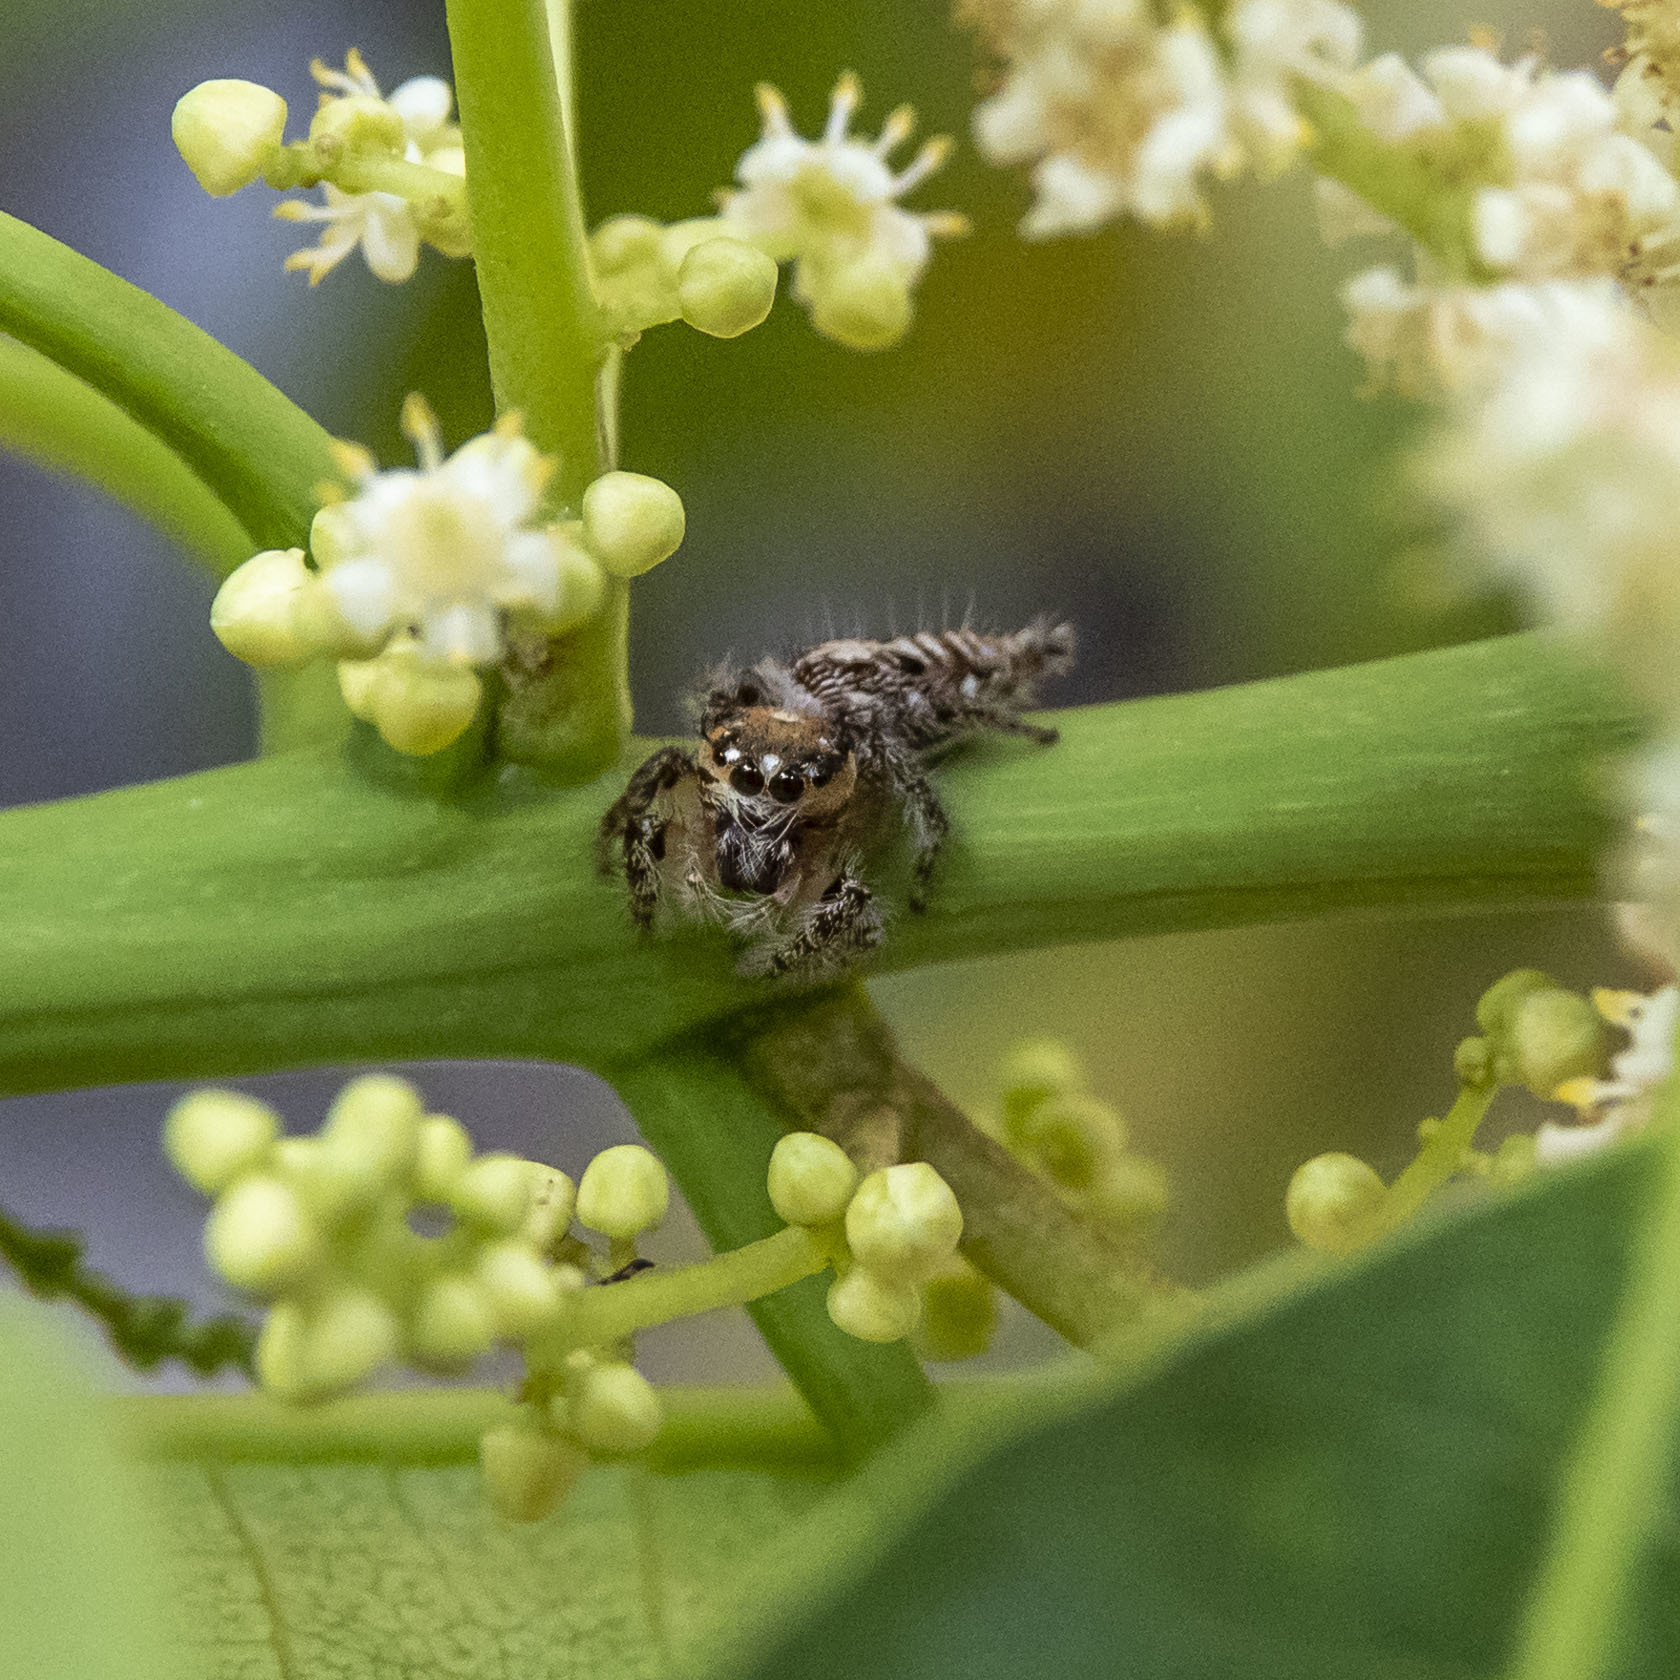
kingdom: Animalia
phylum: Arthropoda
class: Arachnida
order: Araneae
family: Salticidae
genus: Hyllus
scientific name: Hyllus semicupreus
